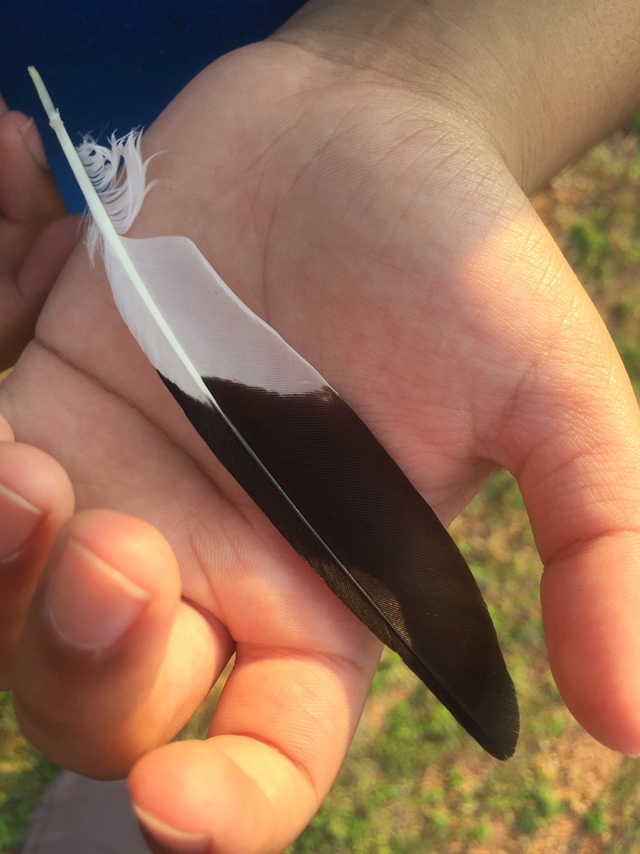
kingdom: Animalia
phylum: Chordata
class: Aves
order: Passeriformes
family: Sturnidae
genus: Acridotheres
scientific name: Acridotheres tristis
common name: Common myna
